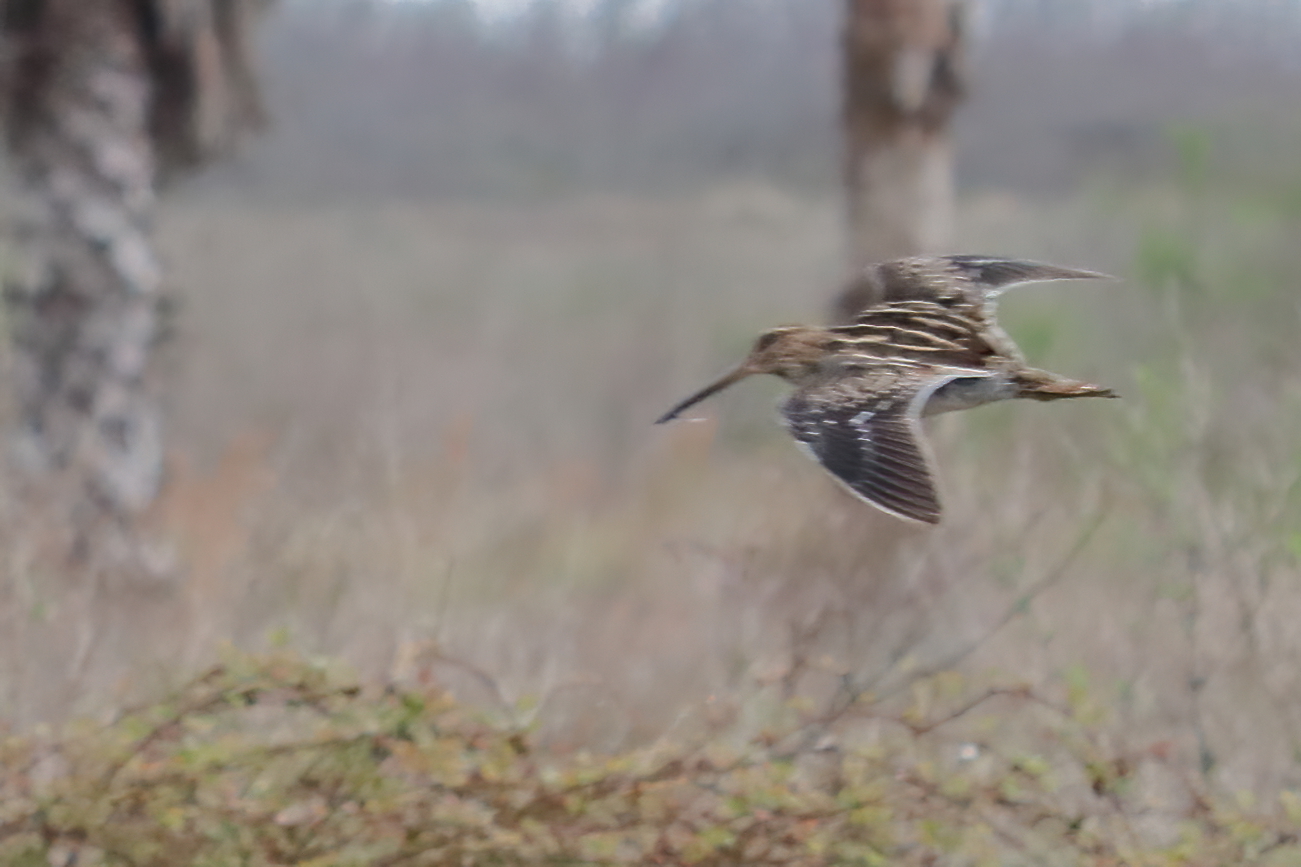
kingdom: Animalia
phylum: Chordata
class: Aves
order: Charadriiformes
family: Scolopacidae
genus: Gallinago
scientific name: Gallinago delicata
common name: Wilson's snipe
